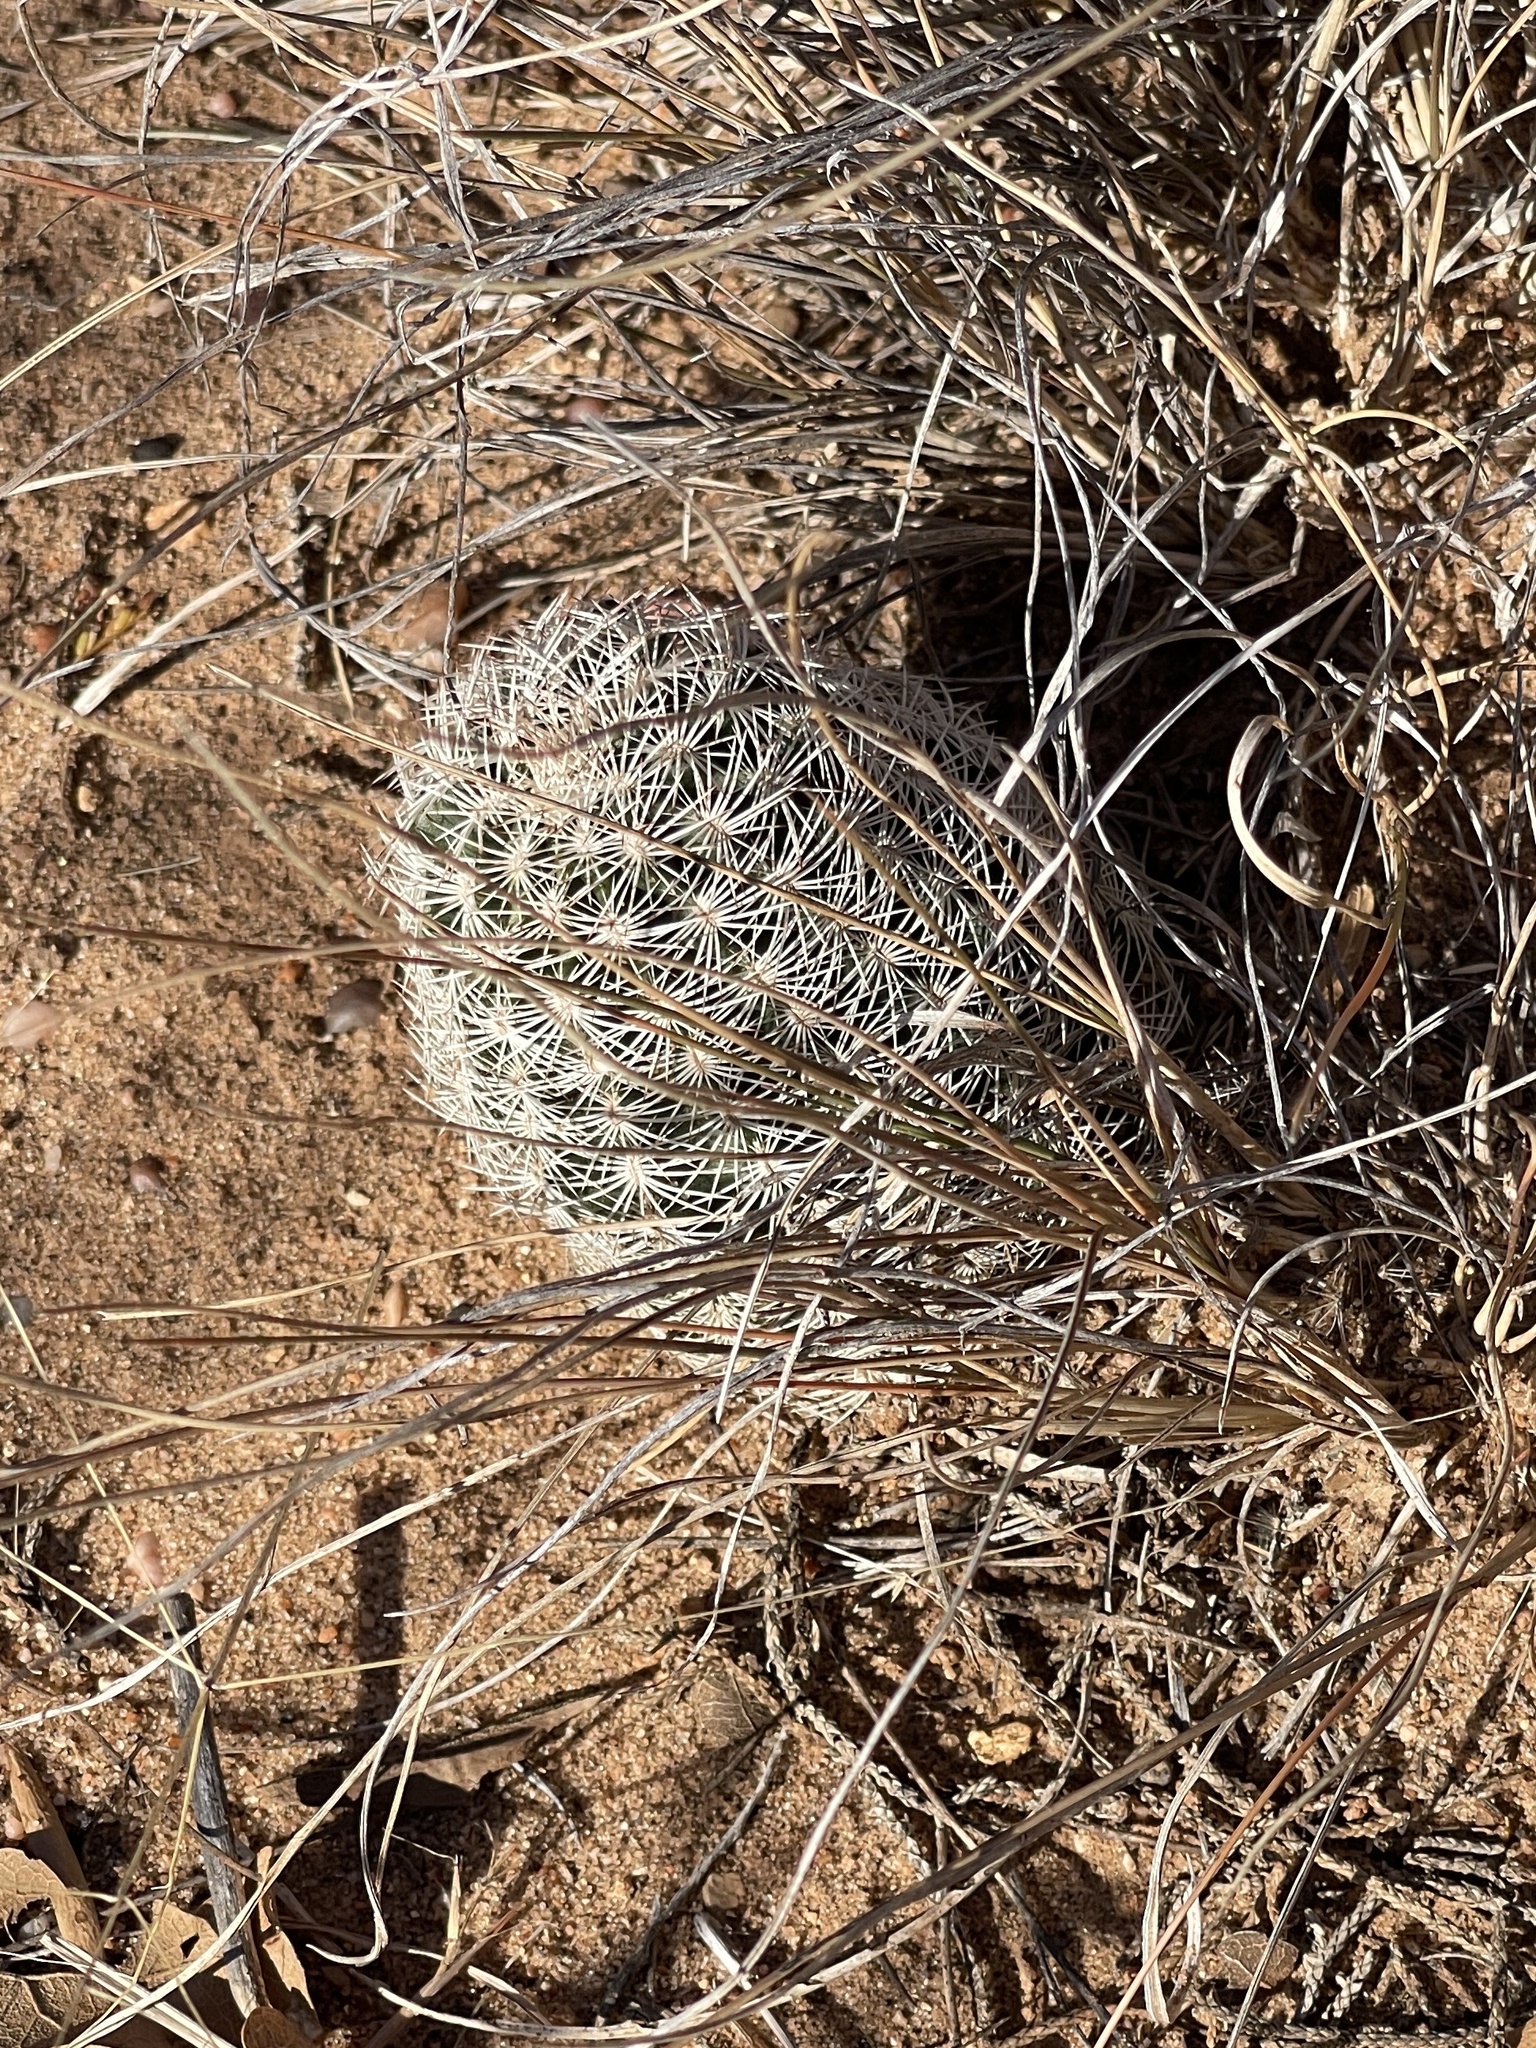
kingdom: Plantae
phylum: Tracheophyta
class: Magnoliopsida
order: Caryophyllales
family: Cactaceae
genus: Echinocereus
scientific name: Echinocereus reichenbachii
